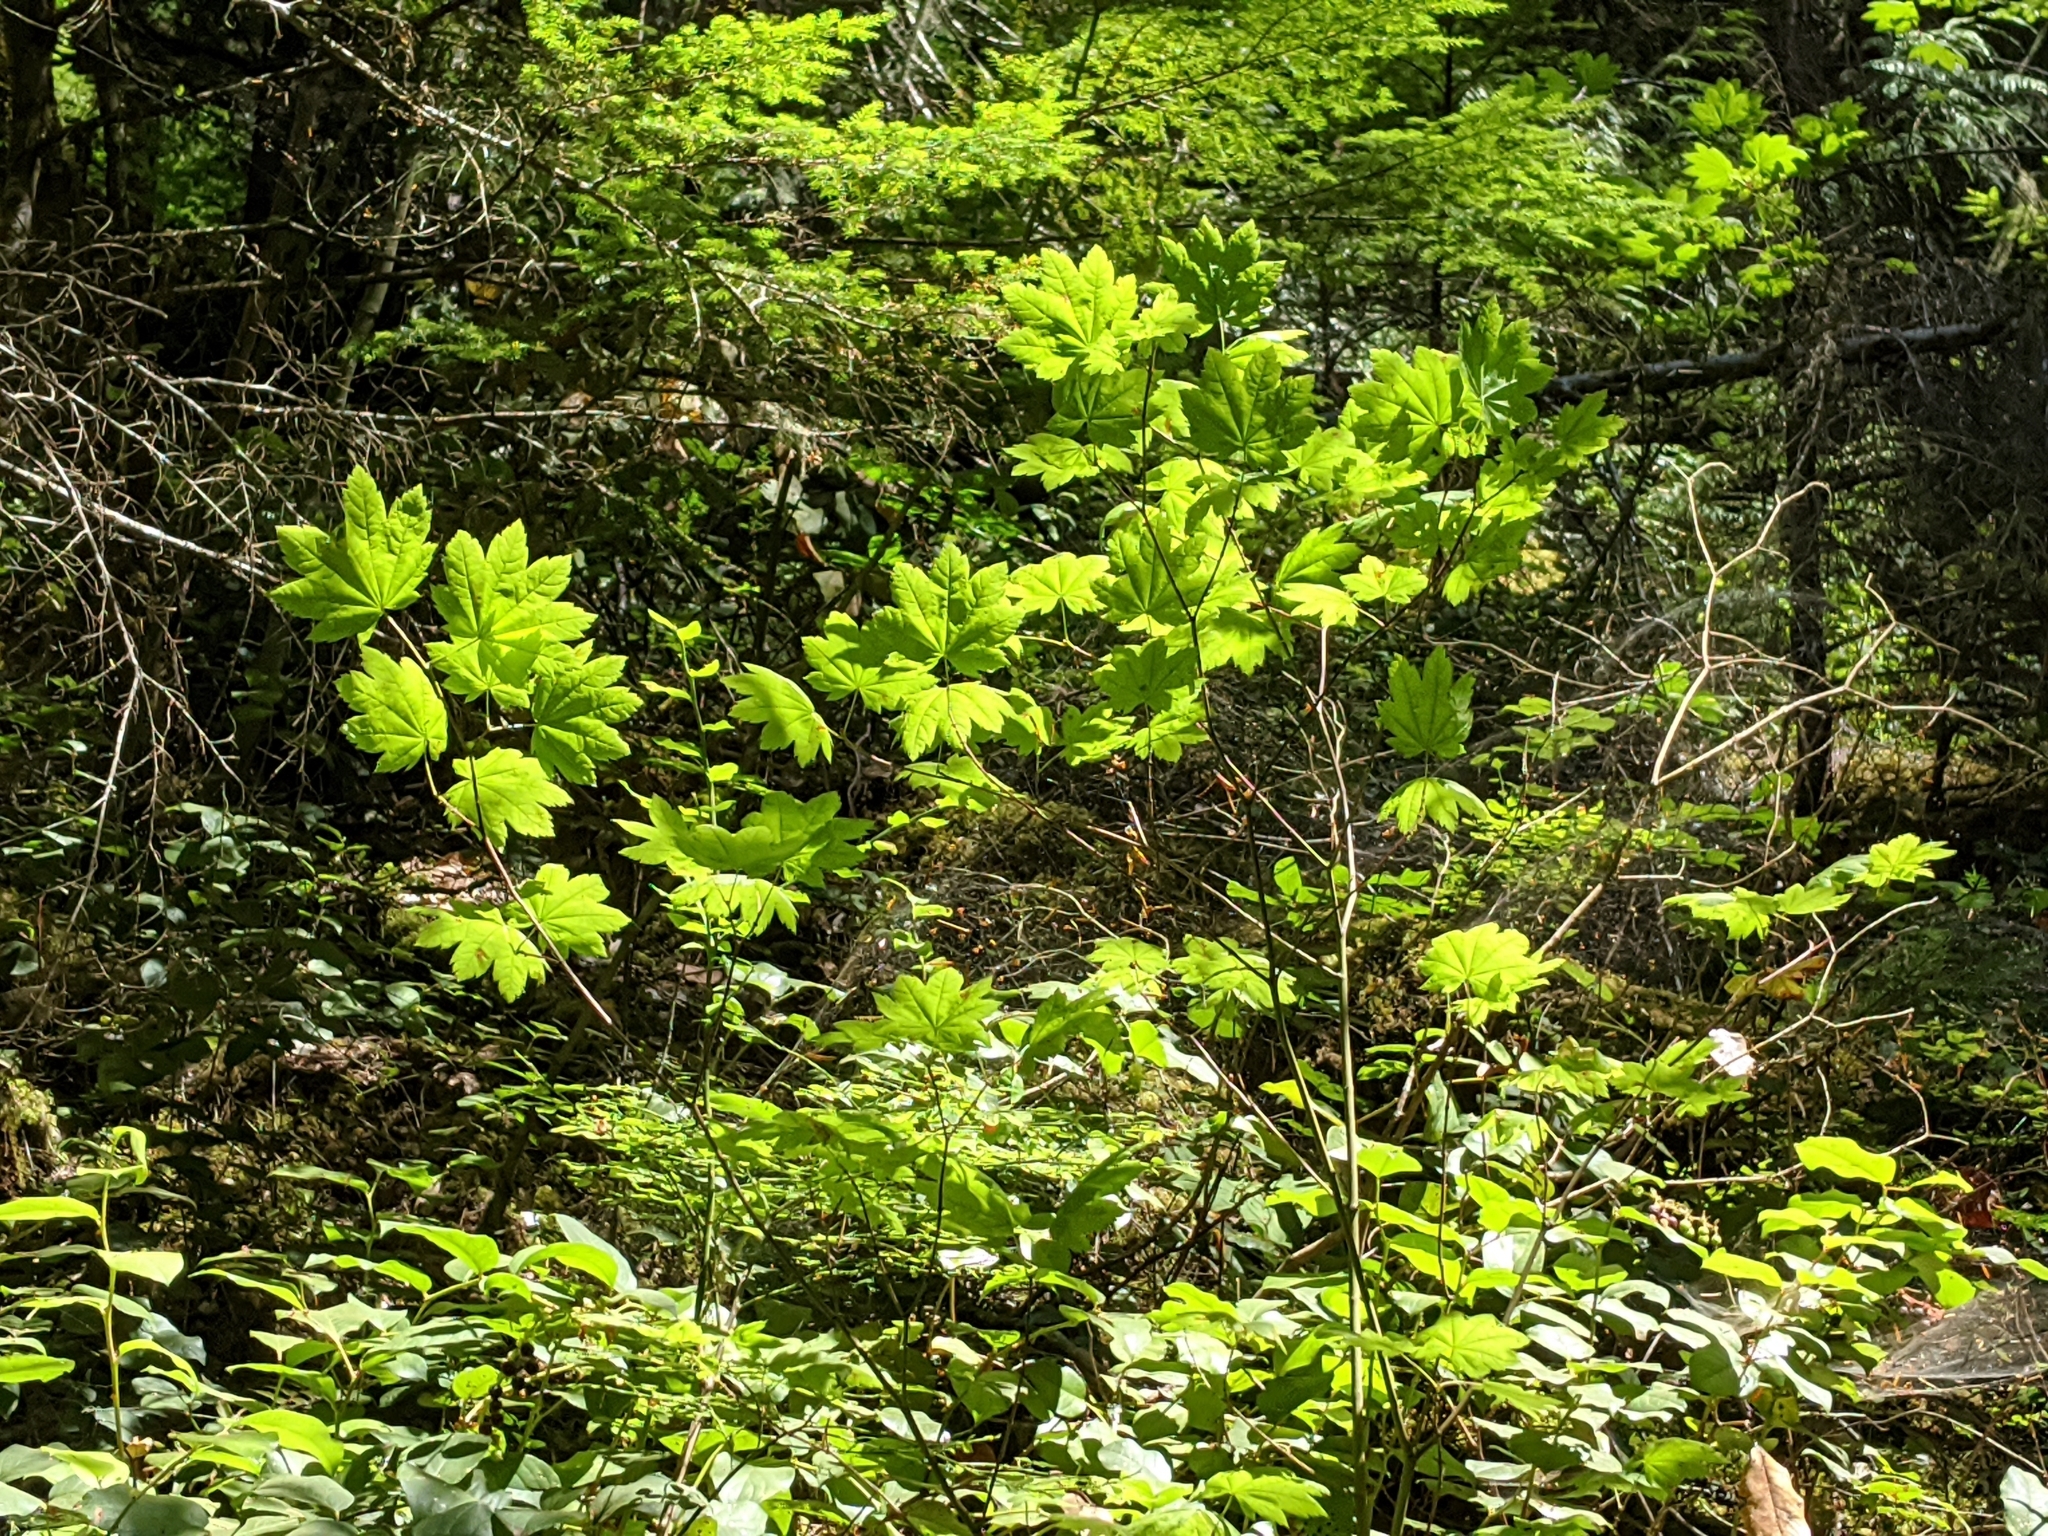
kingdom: Plantae
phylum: Tracheophyta
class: Magnoliopsida
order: Sapindales
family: Sapindaceae
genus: Acer
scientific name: Acer circinatum
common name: Vine maple
